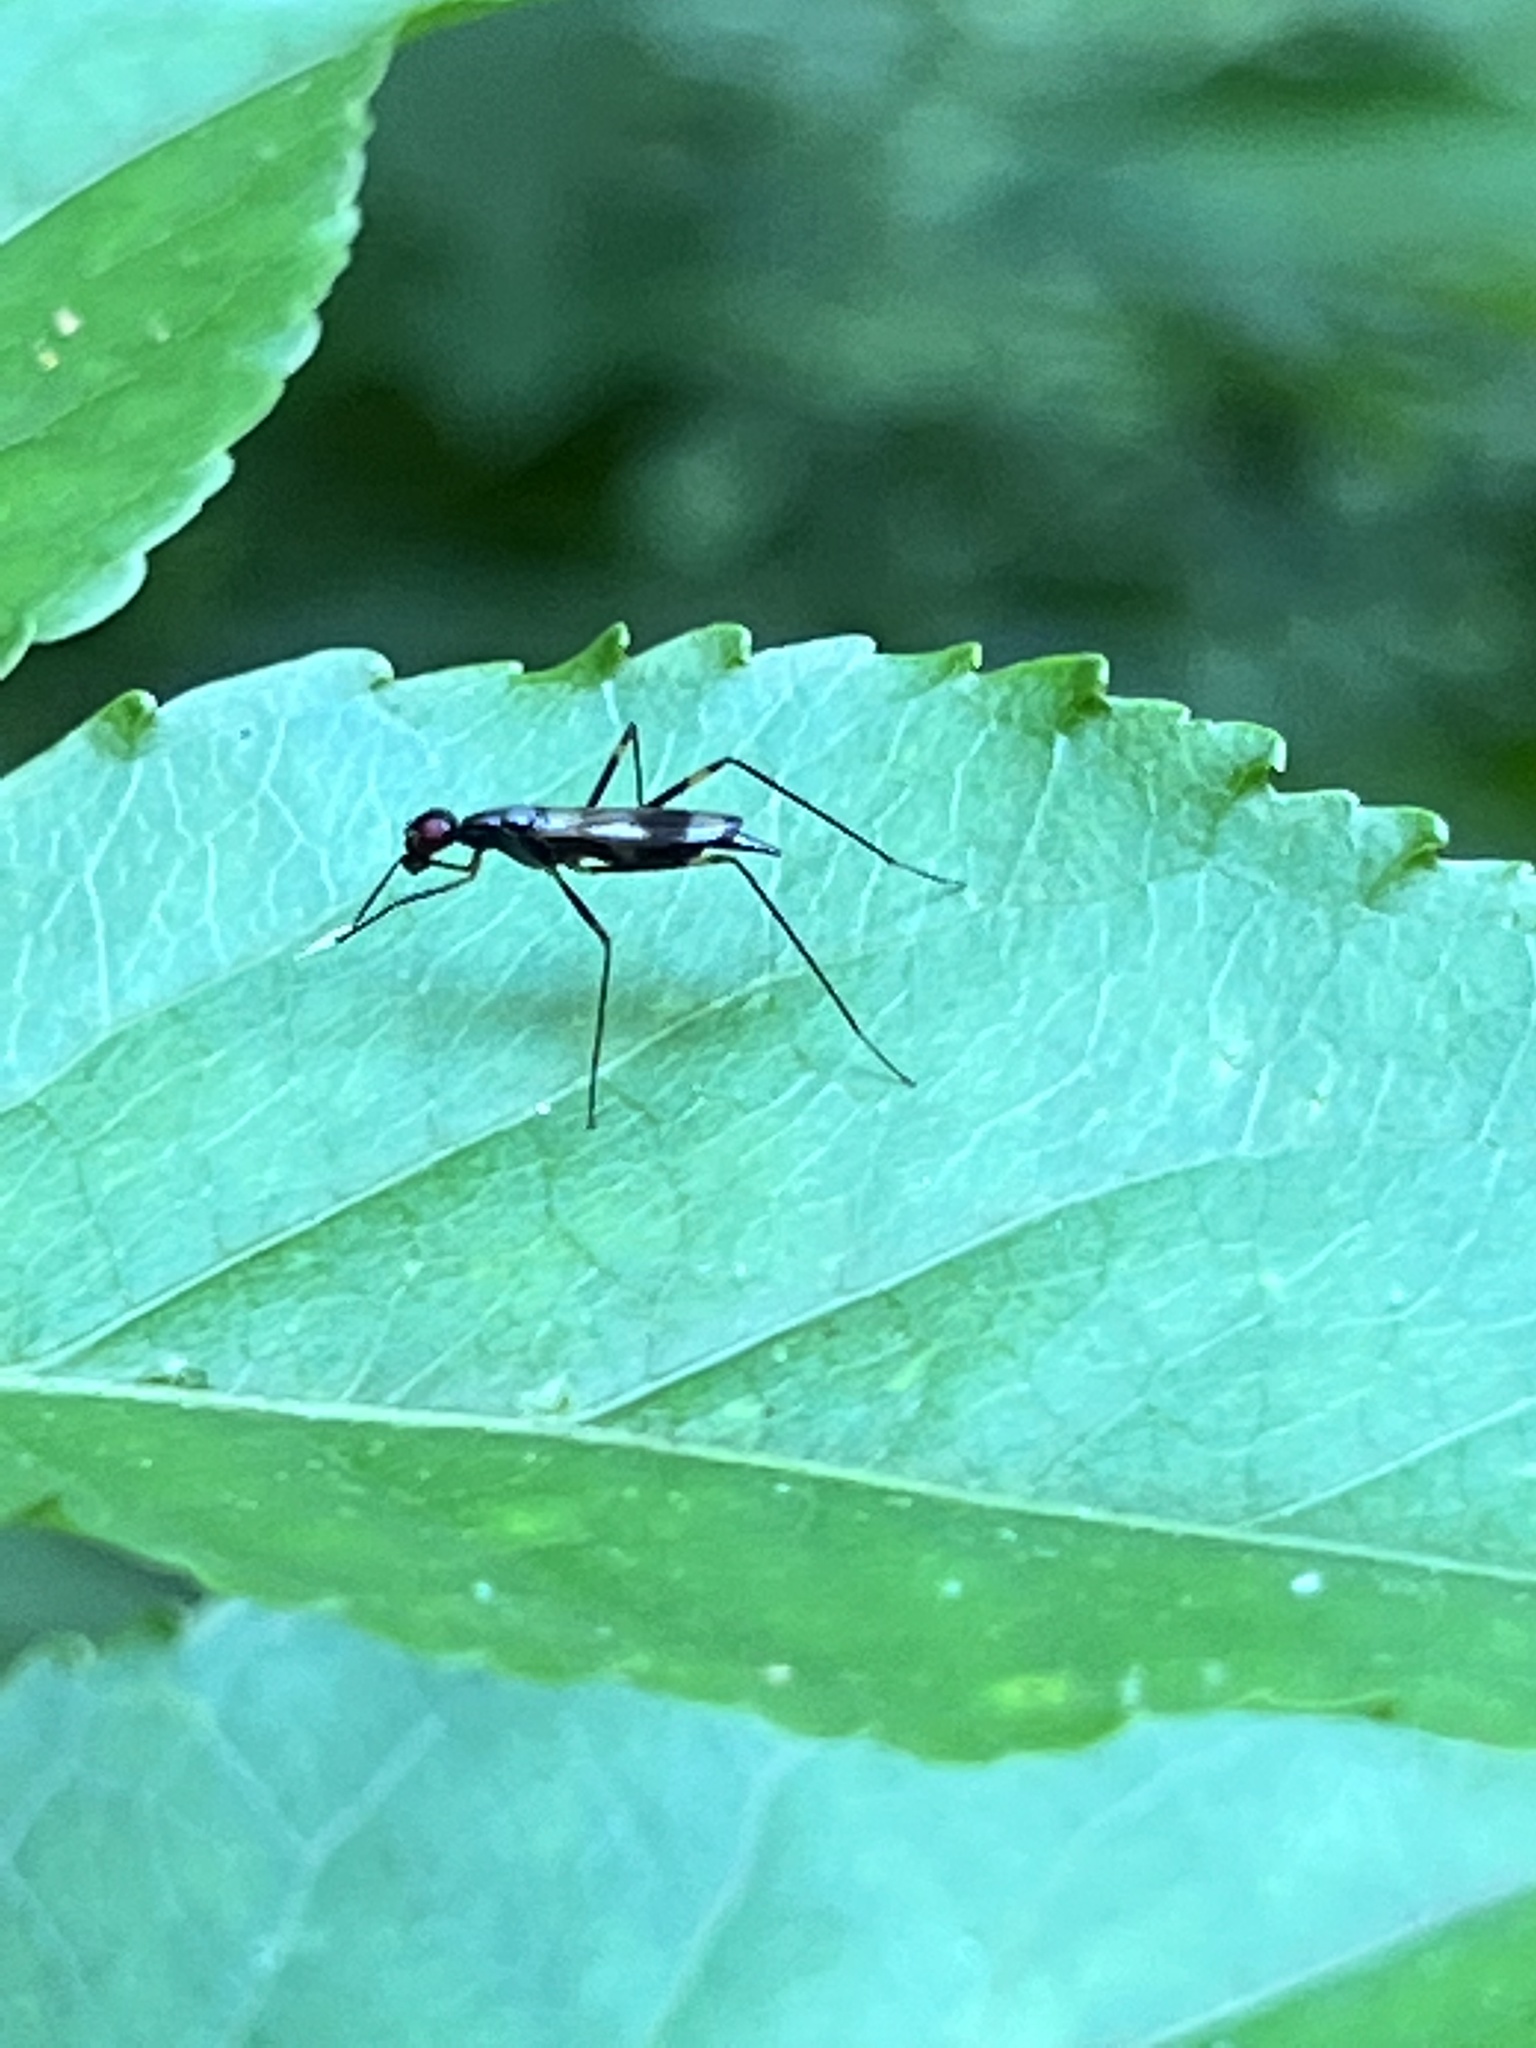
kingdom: Animalia
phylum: Arthropoda
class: Insecta
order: Diptera
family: Micropezidae
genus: Rainieria
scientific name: Rainieria antennaepes
